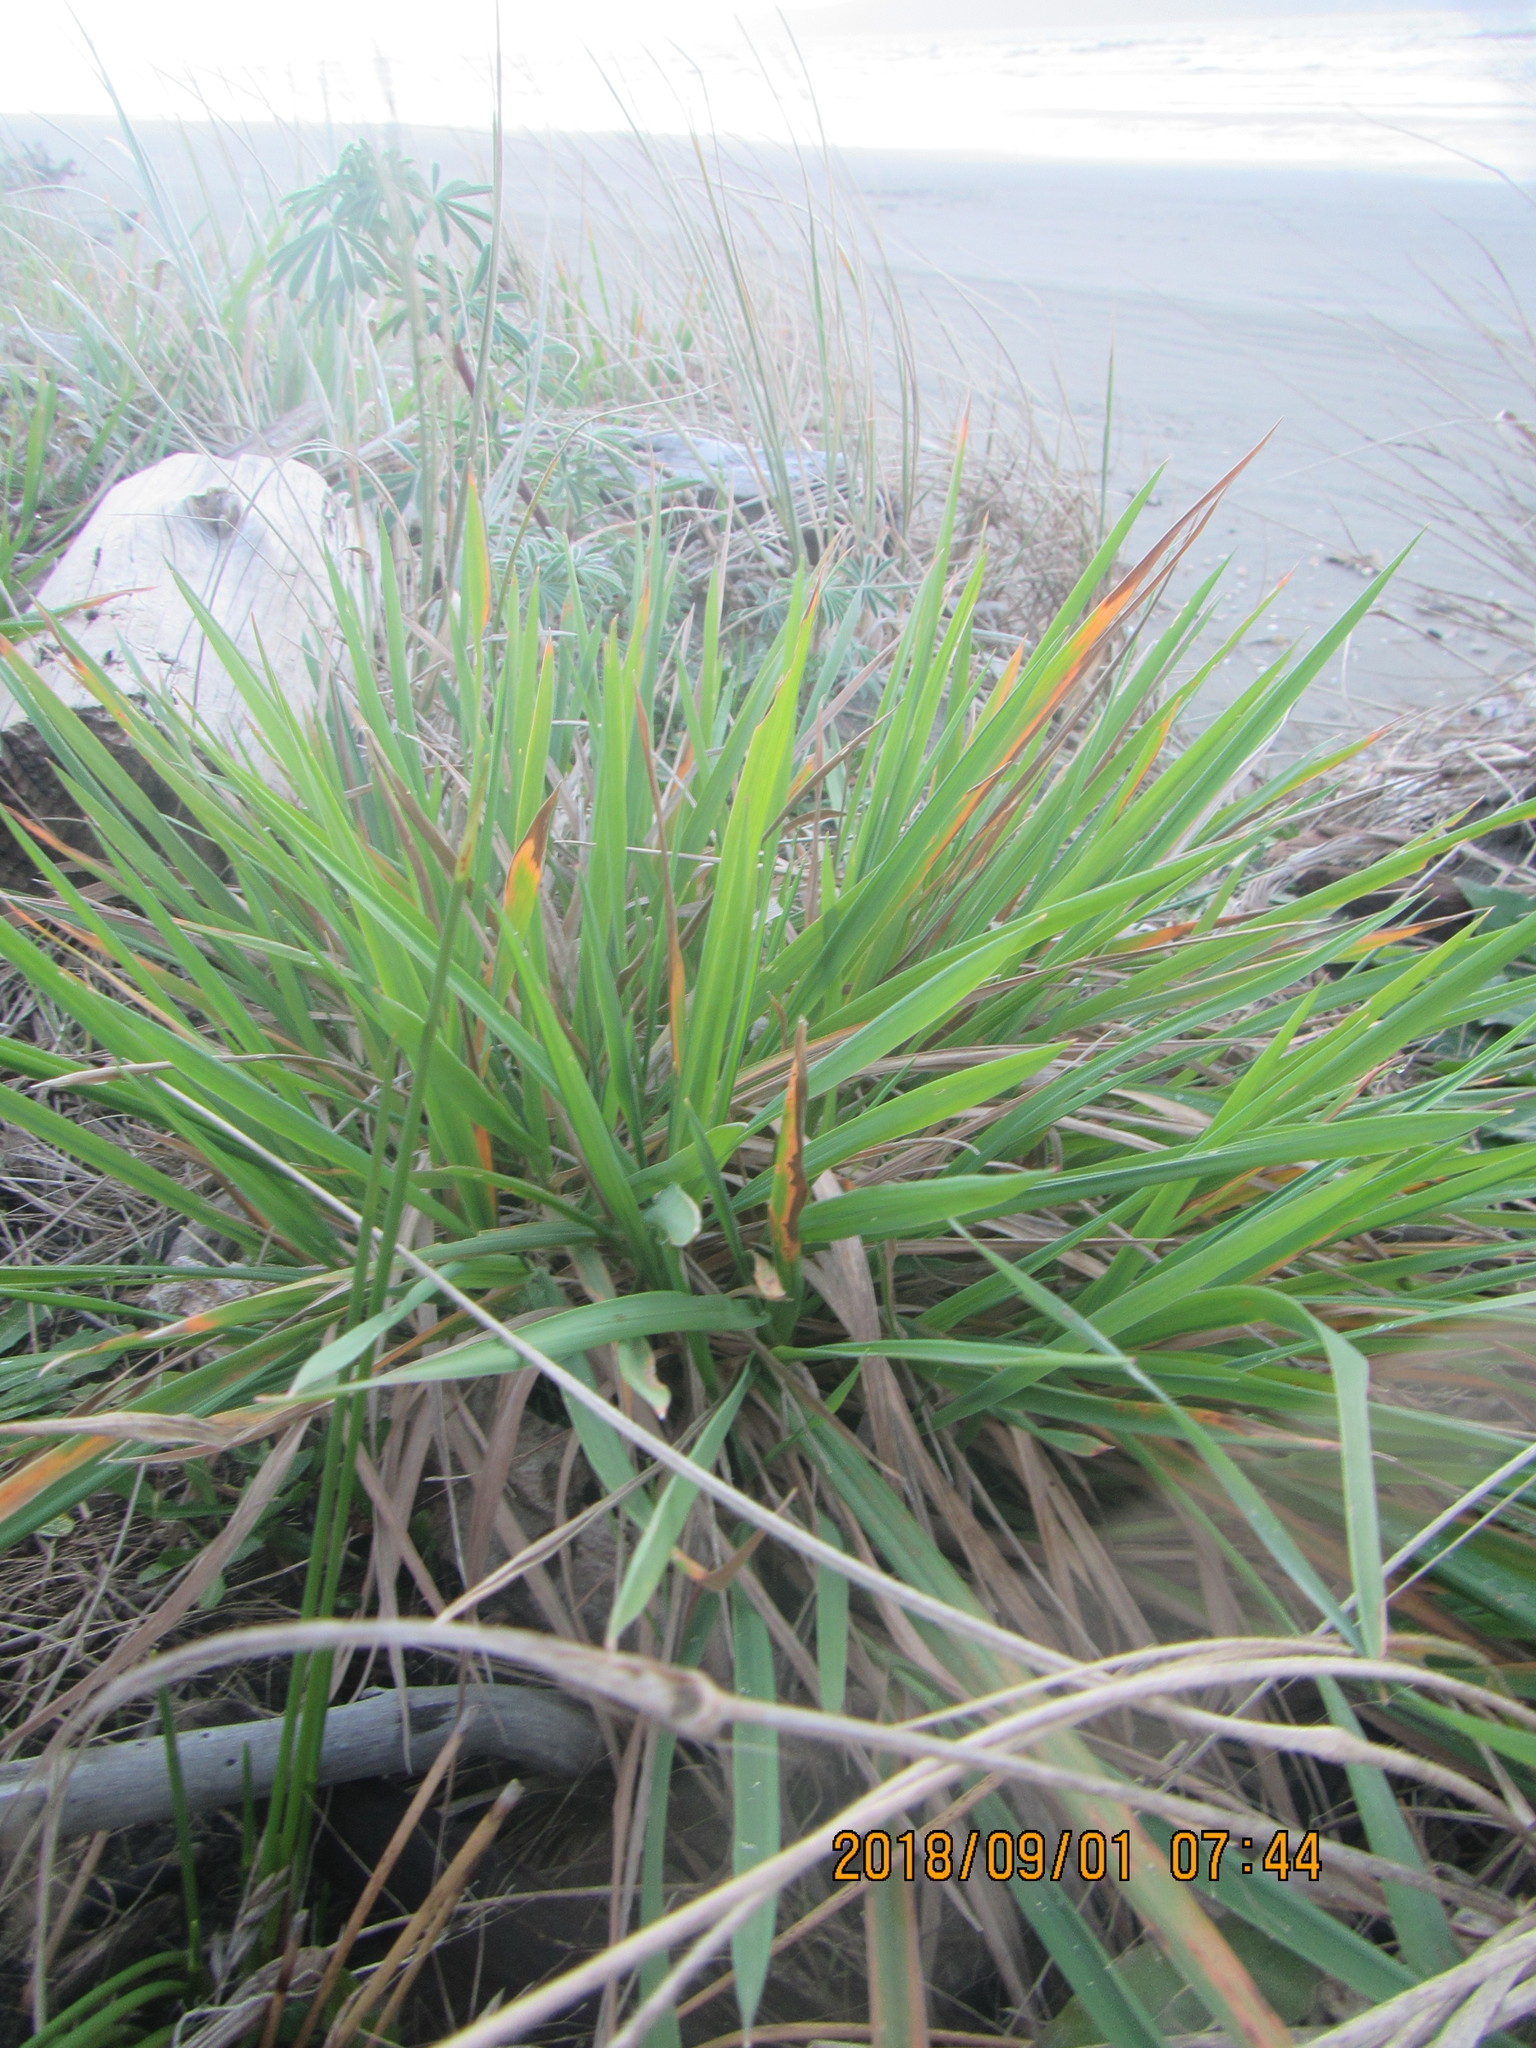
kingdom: Plantae
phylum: Tracheophyta
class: Liliopsida
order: Poales
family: Poaceae
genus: Lachnagrostis
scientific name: Lachnagrostis billardierei
